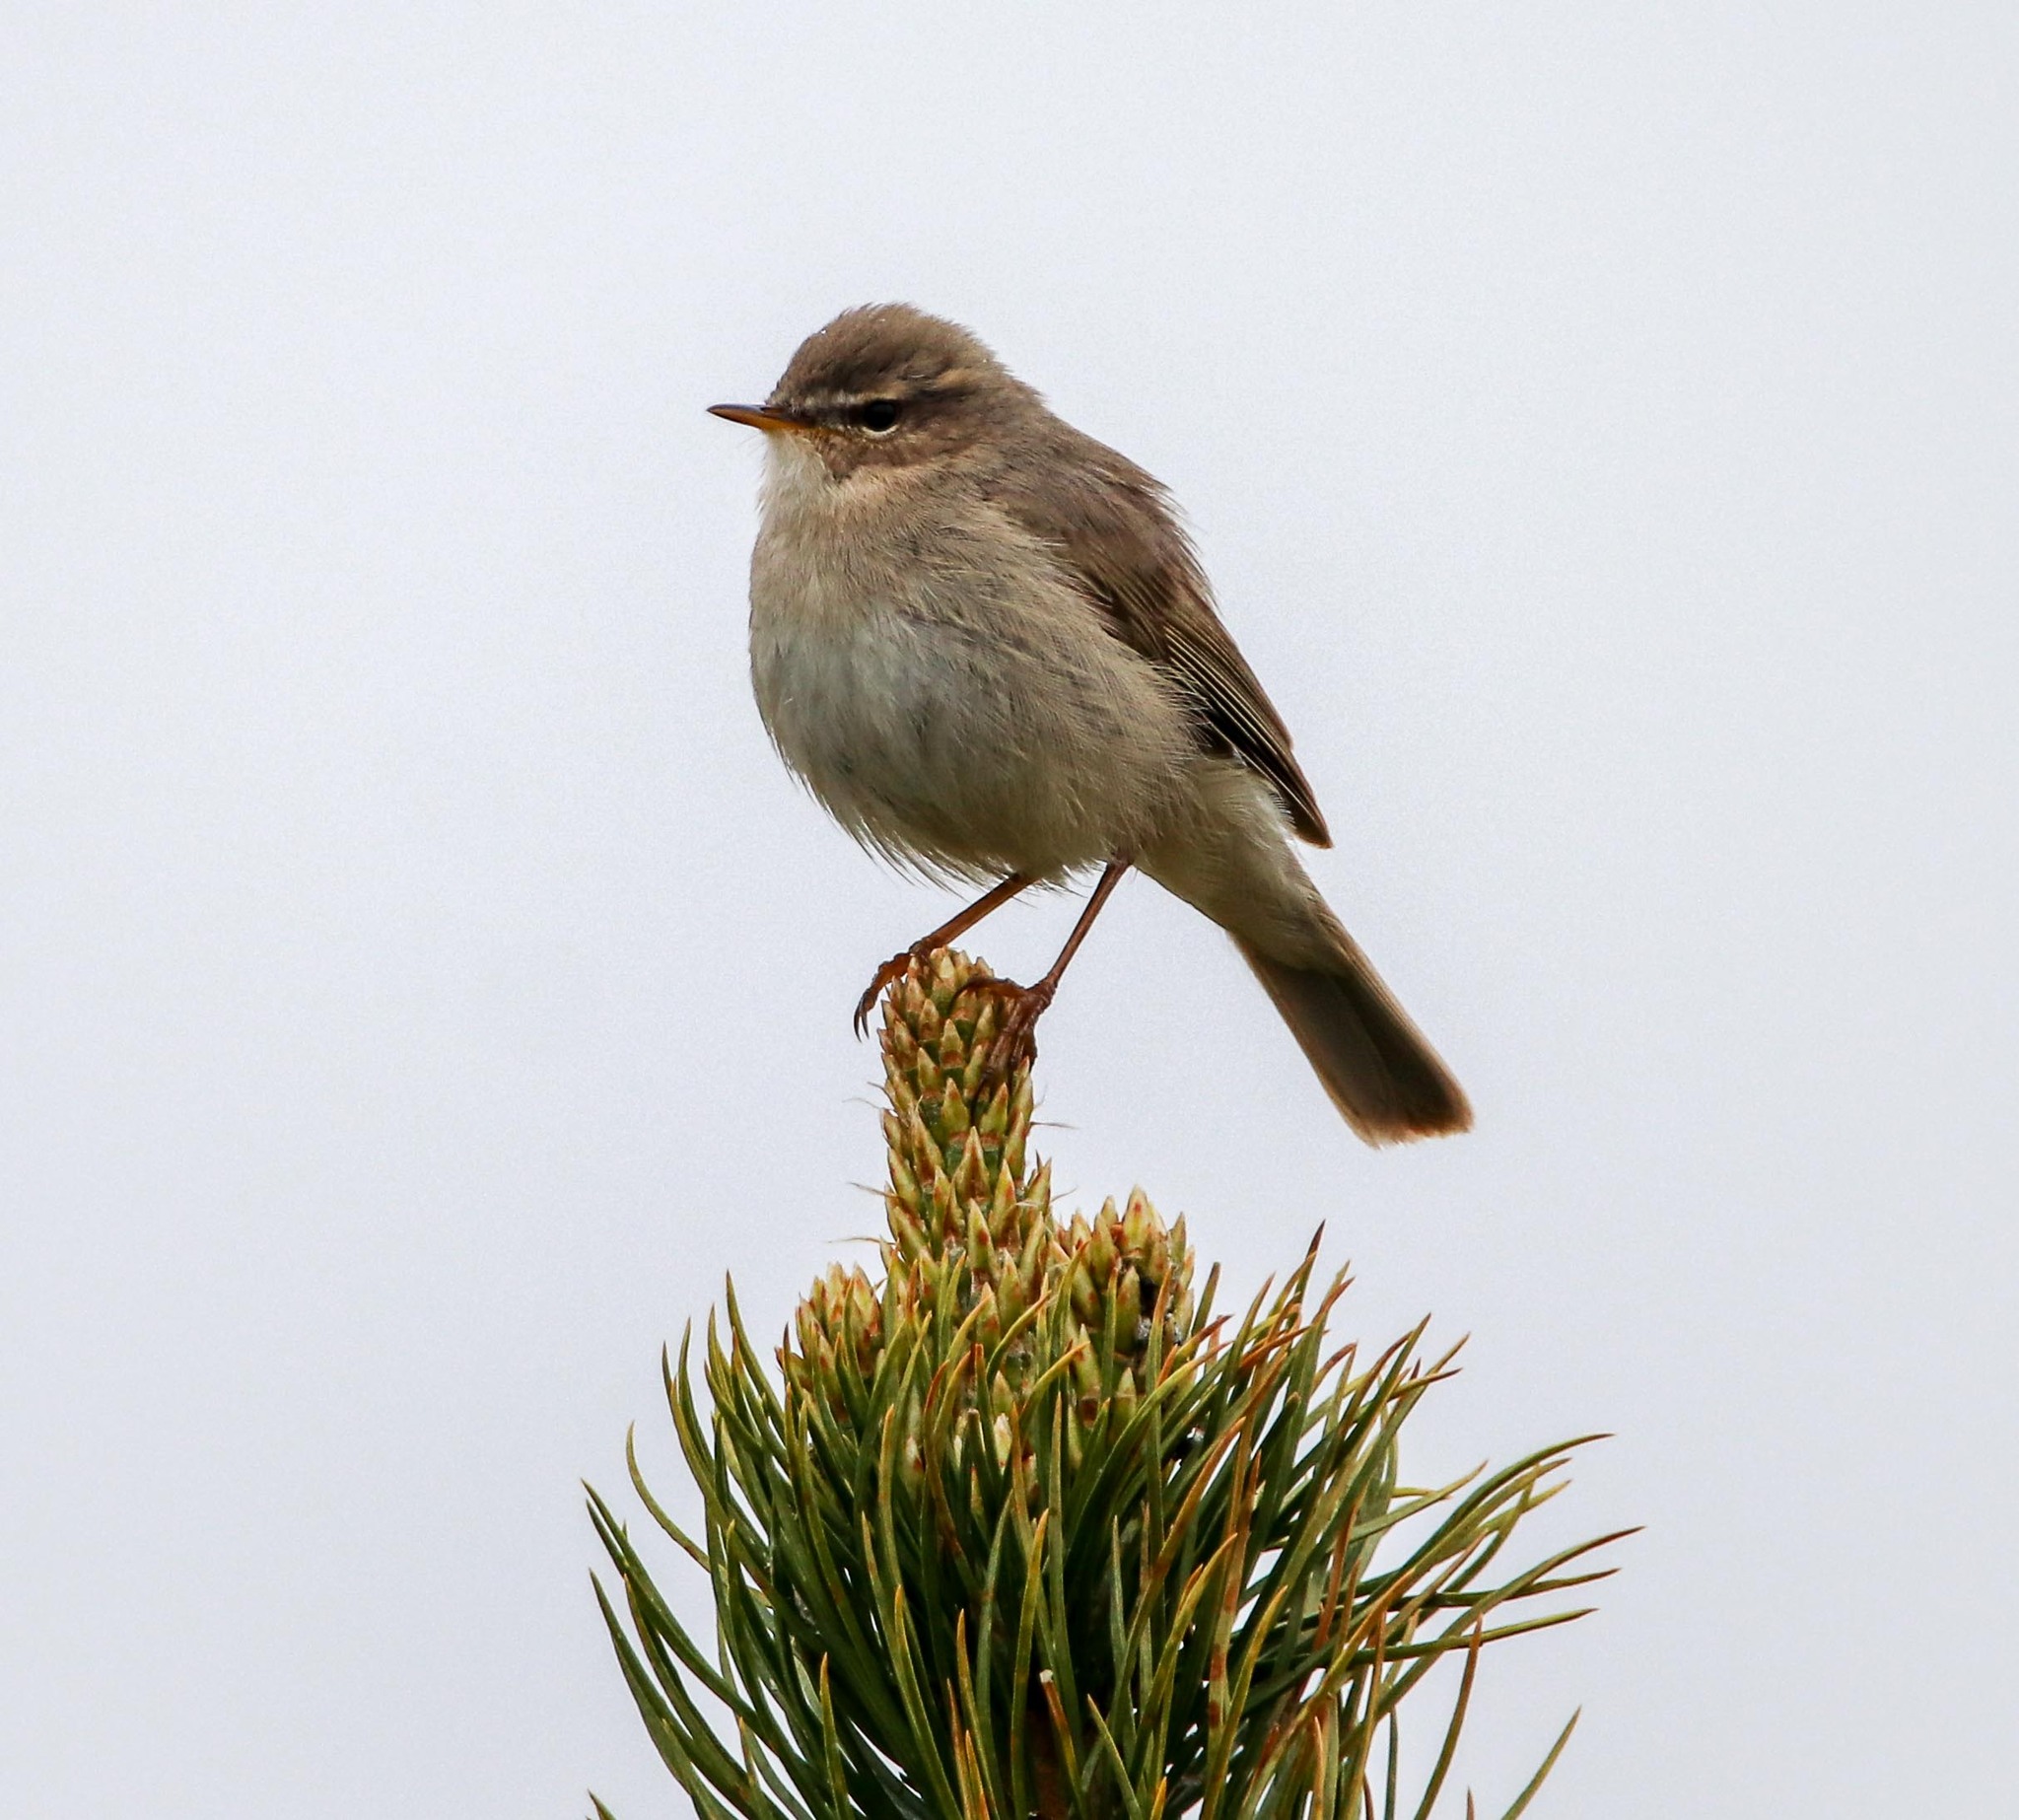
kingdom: Animalia
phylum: Chordata
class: Aves
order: Passeriformes
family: Phylloscopidae
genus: Phylloscopus
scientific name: Phylloscopus fuscatus
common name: Dusky warbler
